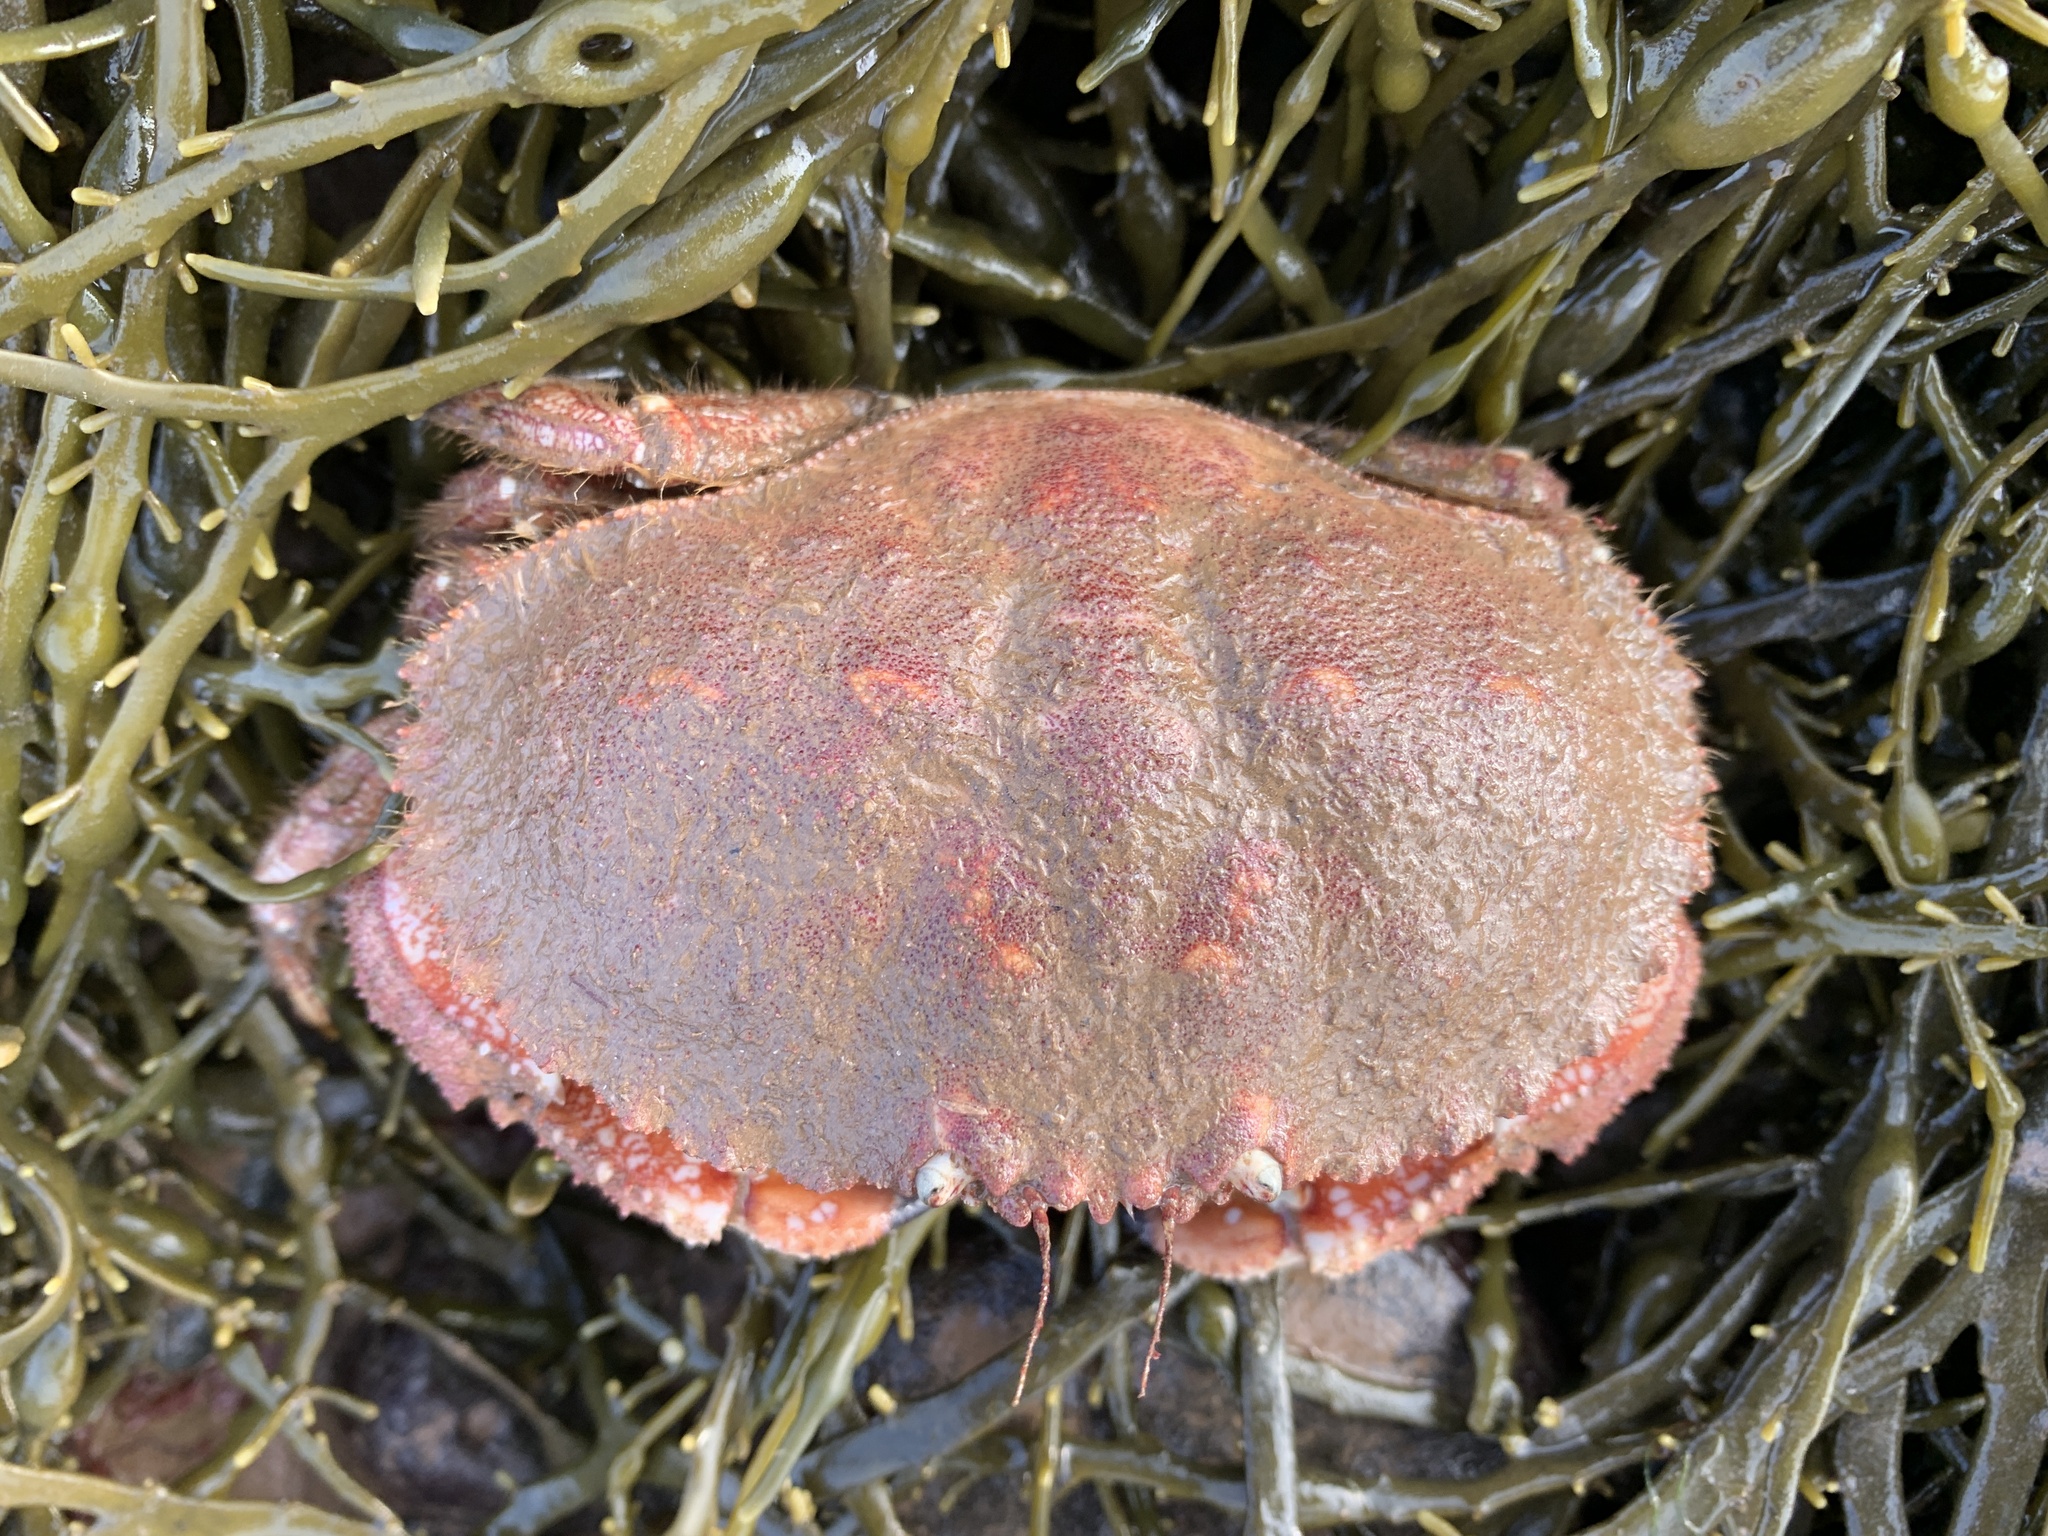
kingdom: Animalia
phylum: Arthropoda
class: Malacostraca
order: Decapoda
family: Cancridae
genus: Cancer
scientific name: Cancer borealis
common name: Jonah crab
